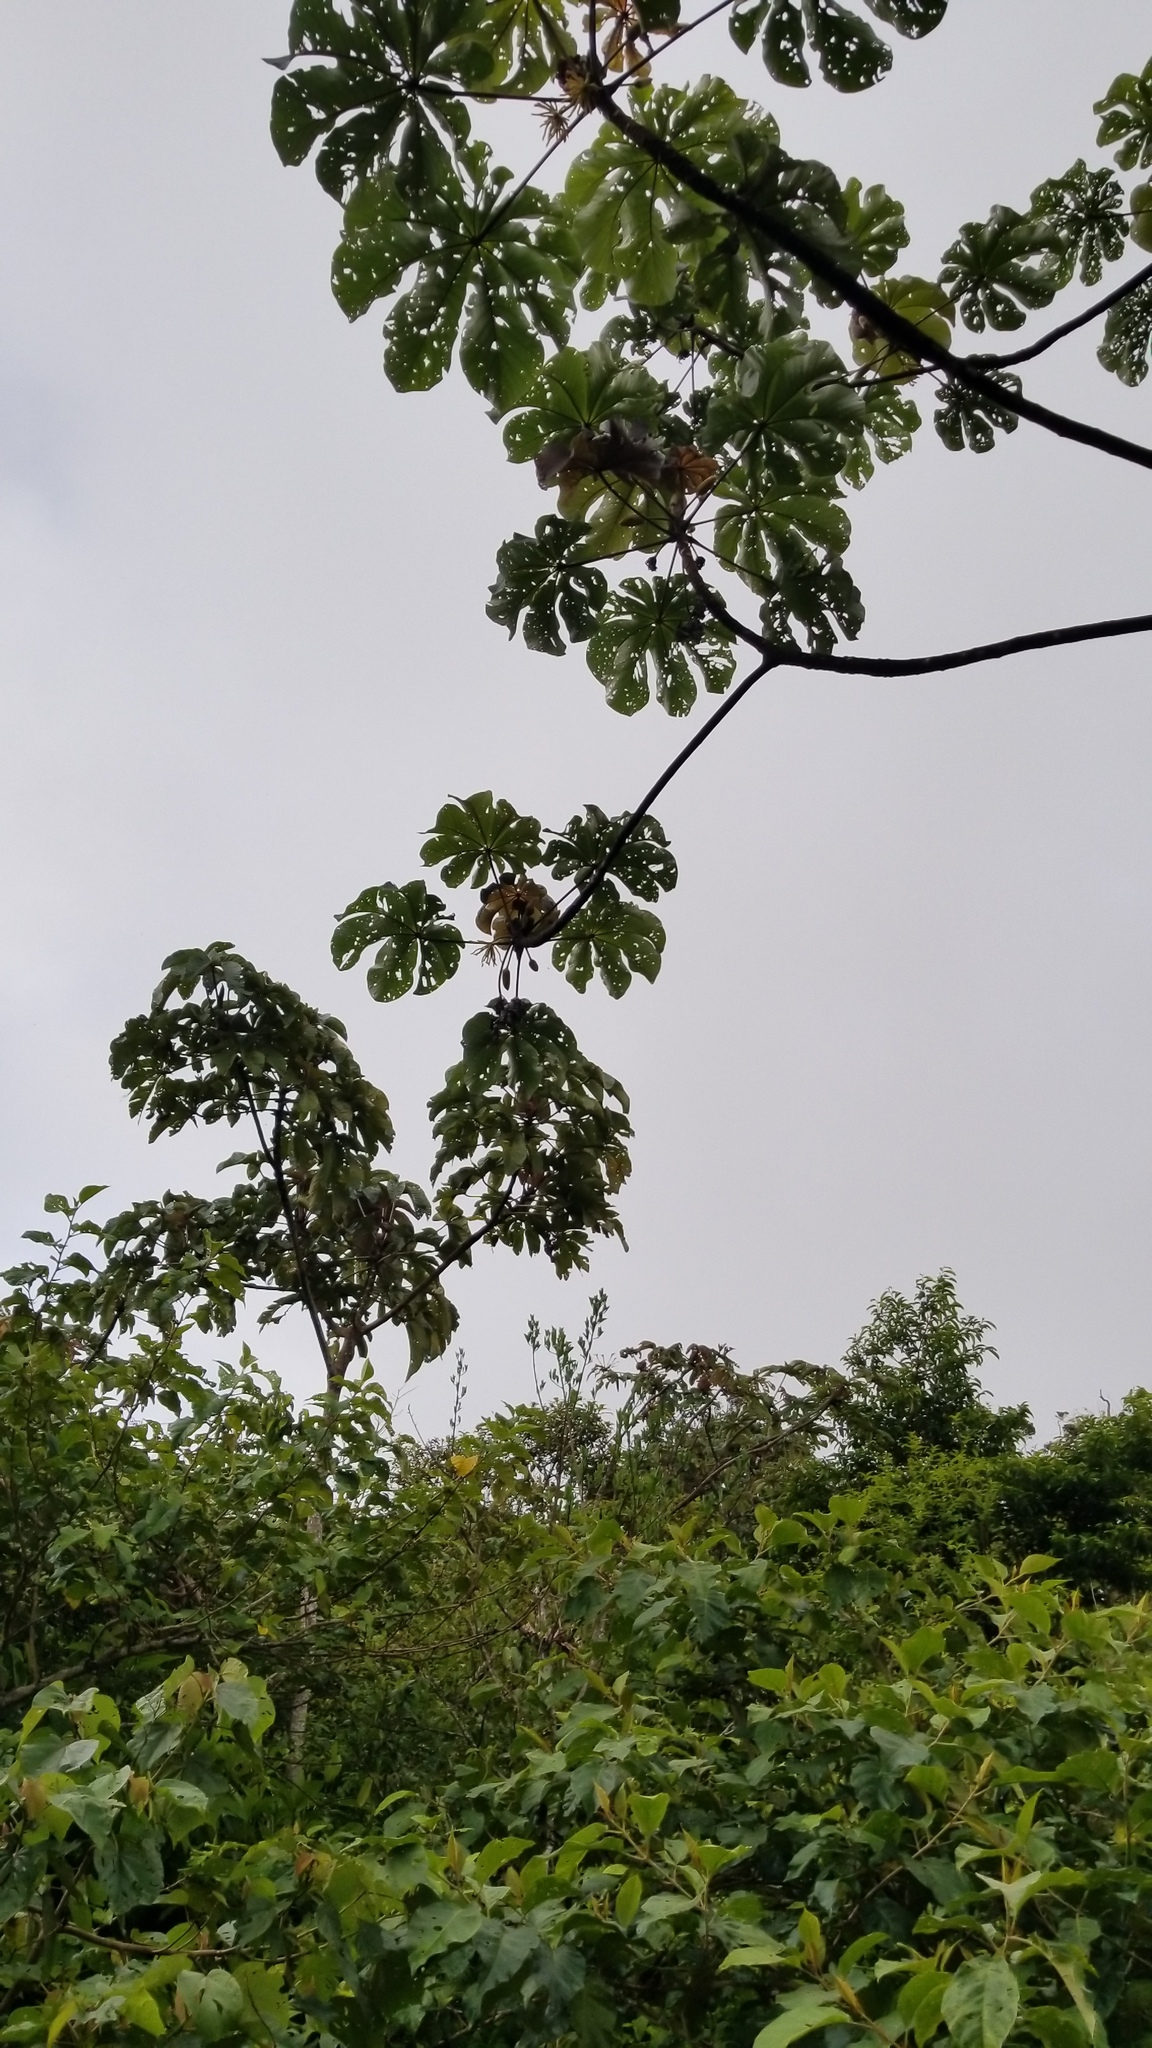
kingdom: Plantae
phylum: Tracheophyta
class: Magnoliopsida
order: Rosales
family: Urticaceae
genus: Cecropia
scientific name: Cecropia peltata
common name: Trumpet-tree
